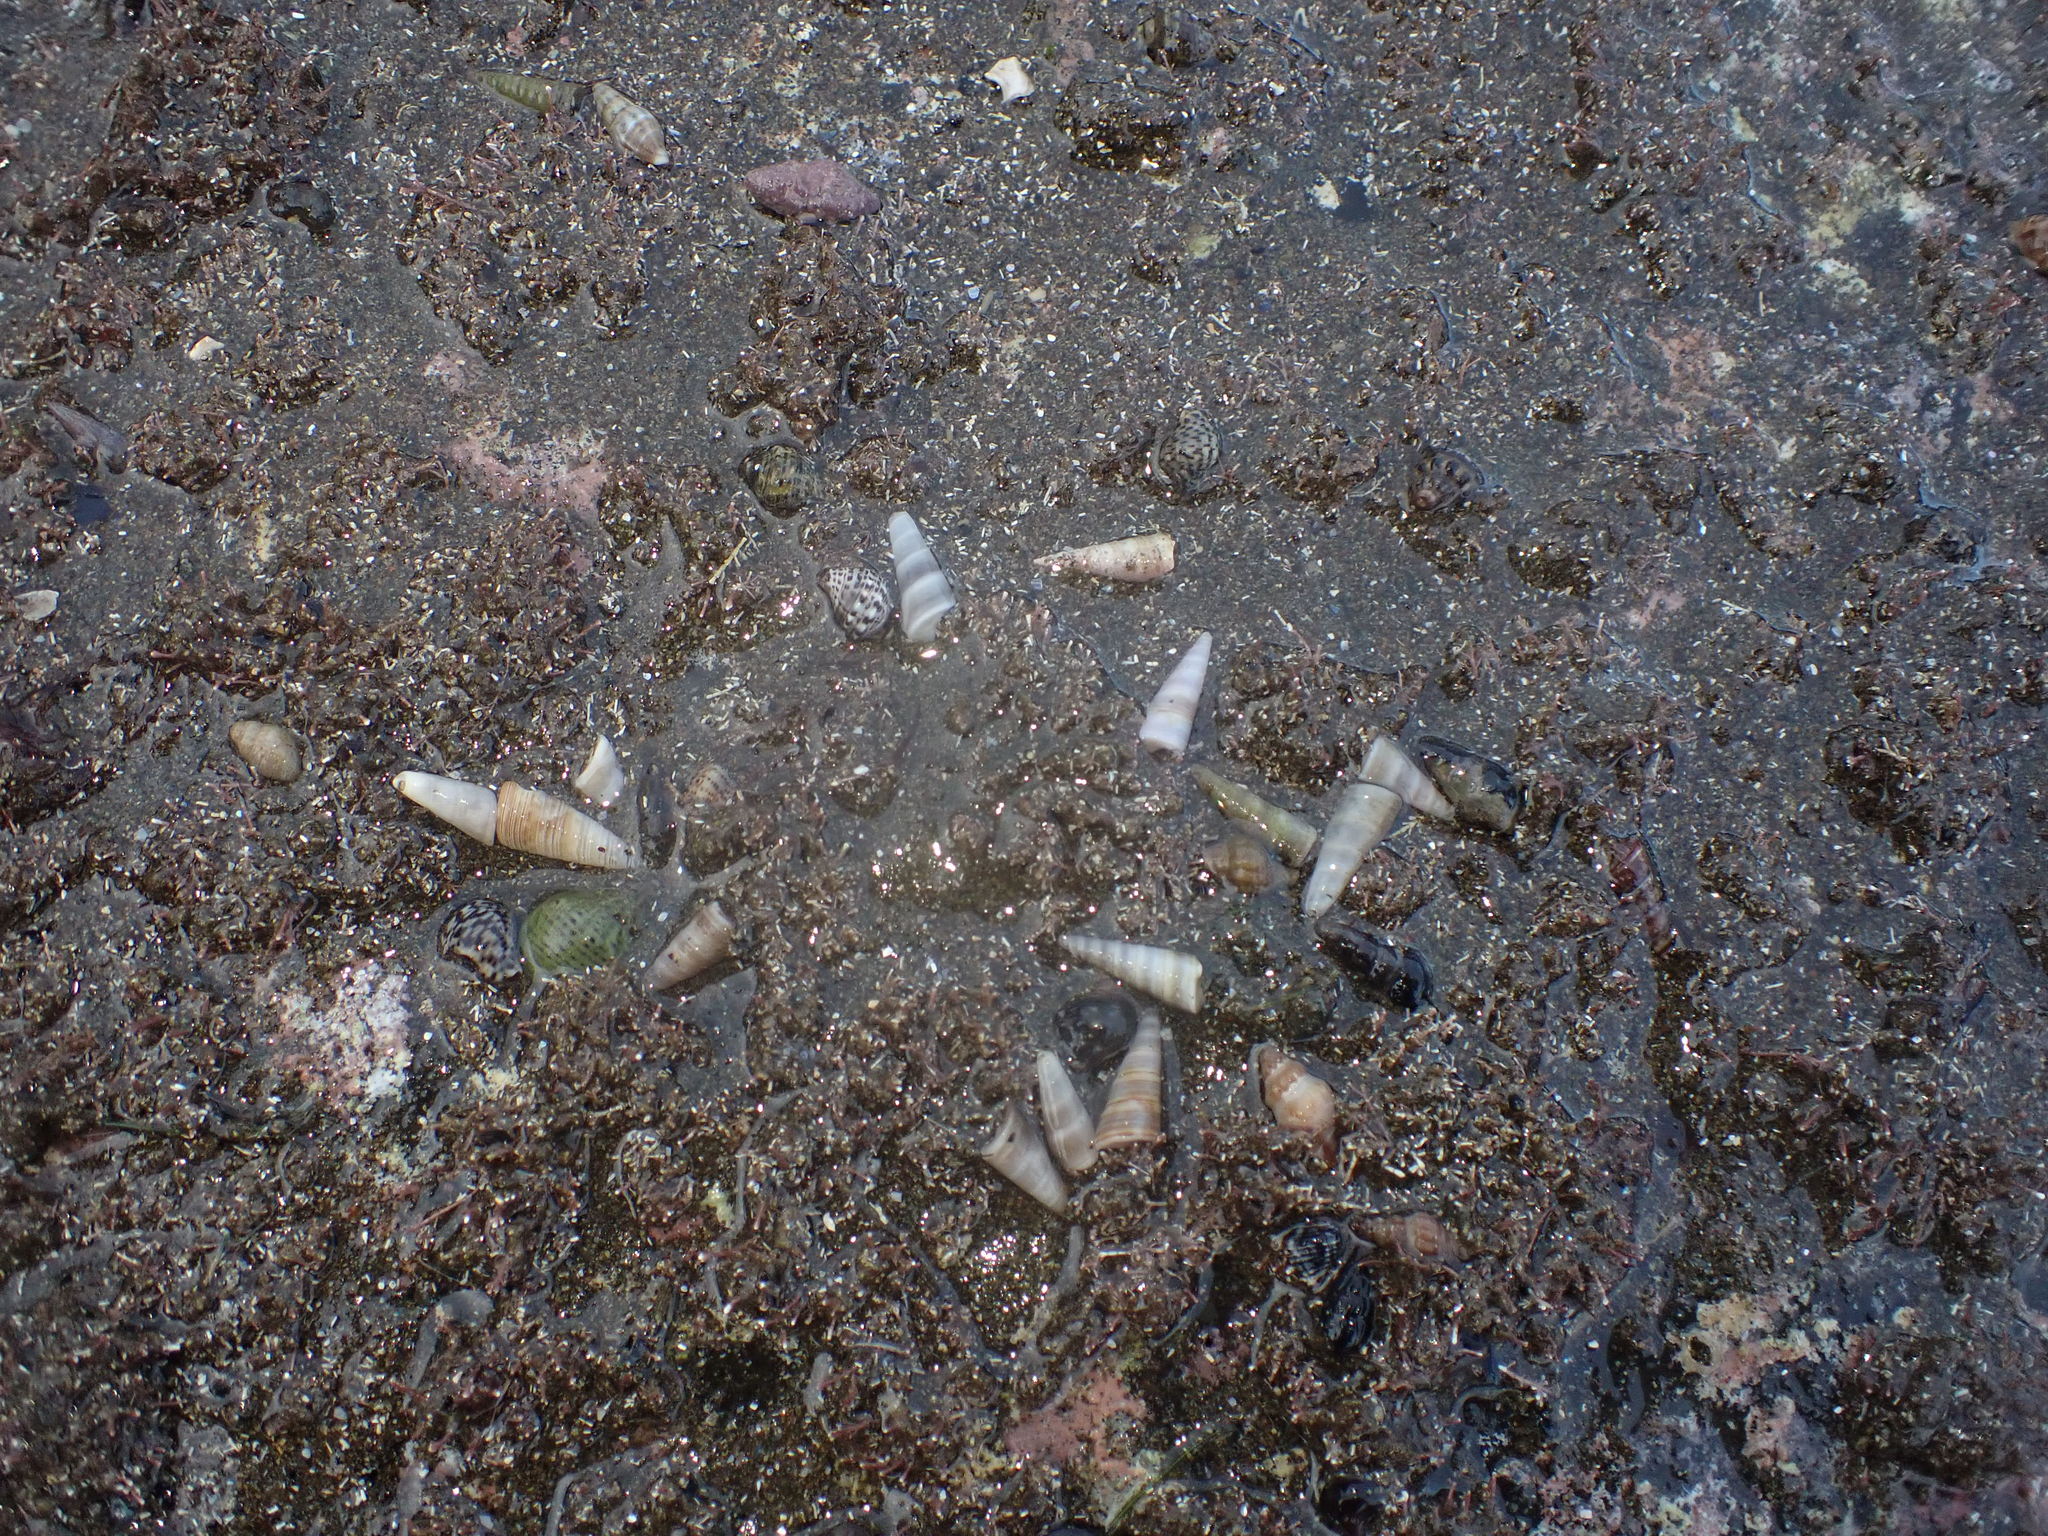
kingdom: Animalia
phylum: Arthropoda
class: Malacostraca
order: Decapoda
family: Paguridae
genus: Pagurus
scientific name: Pagurus novizealandiae
